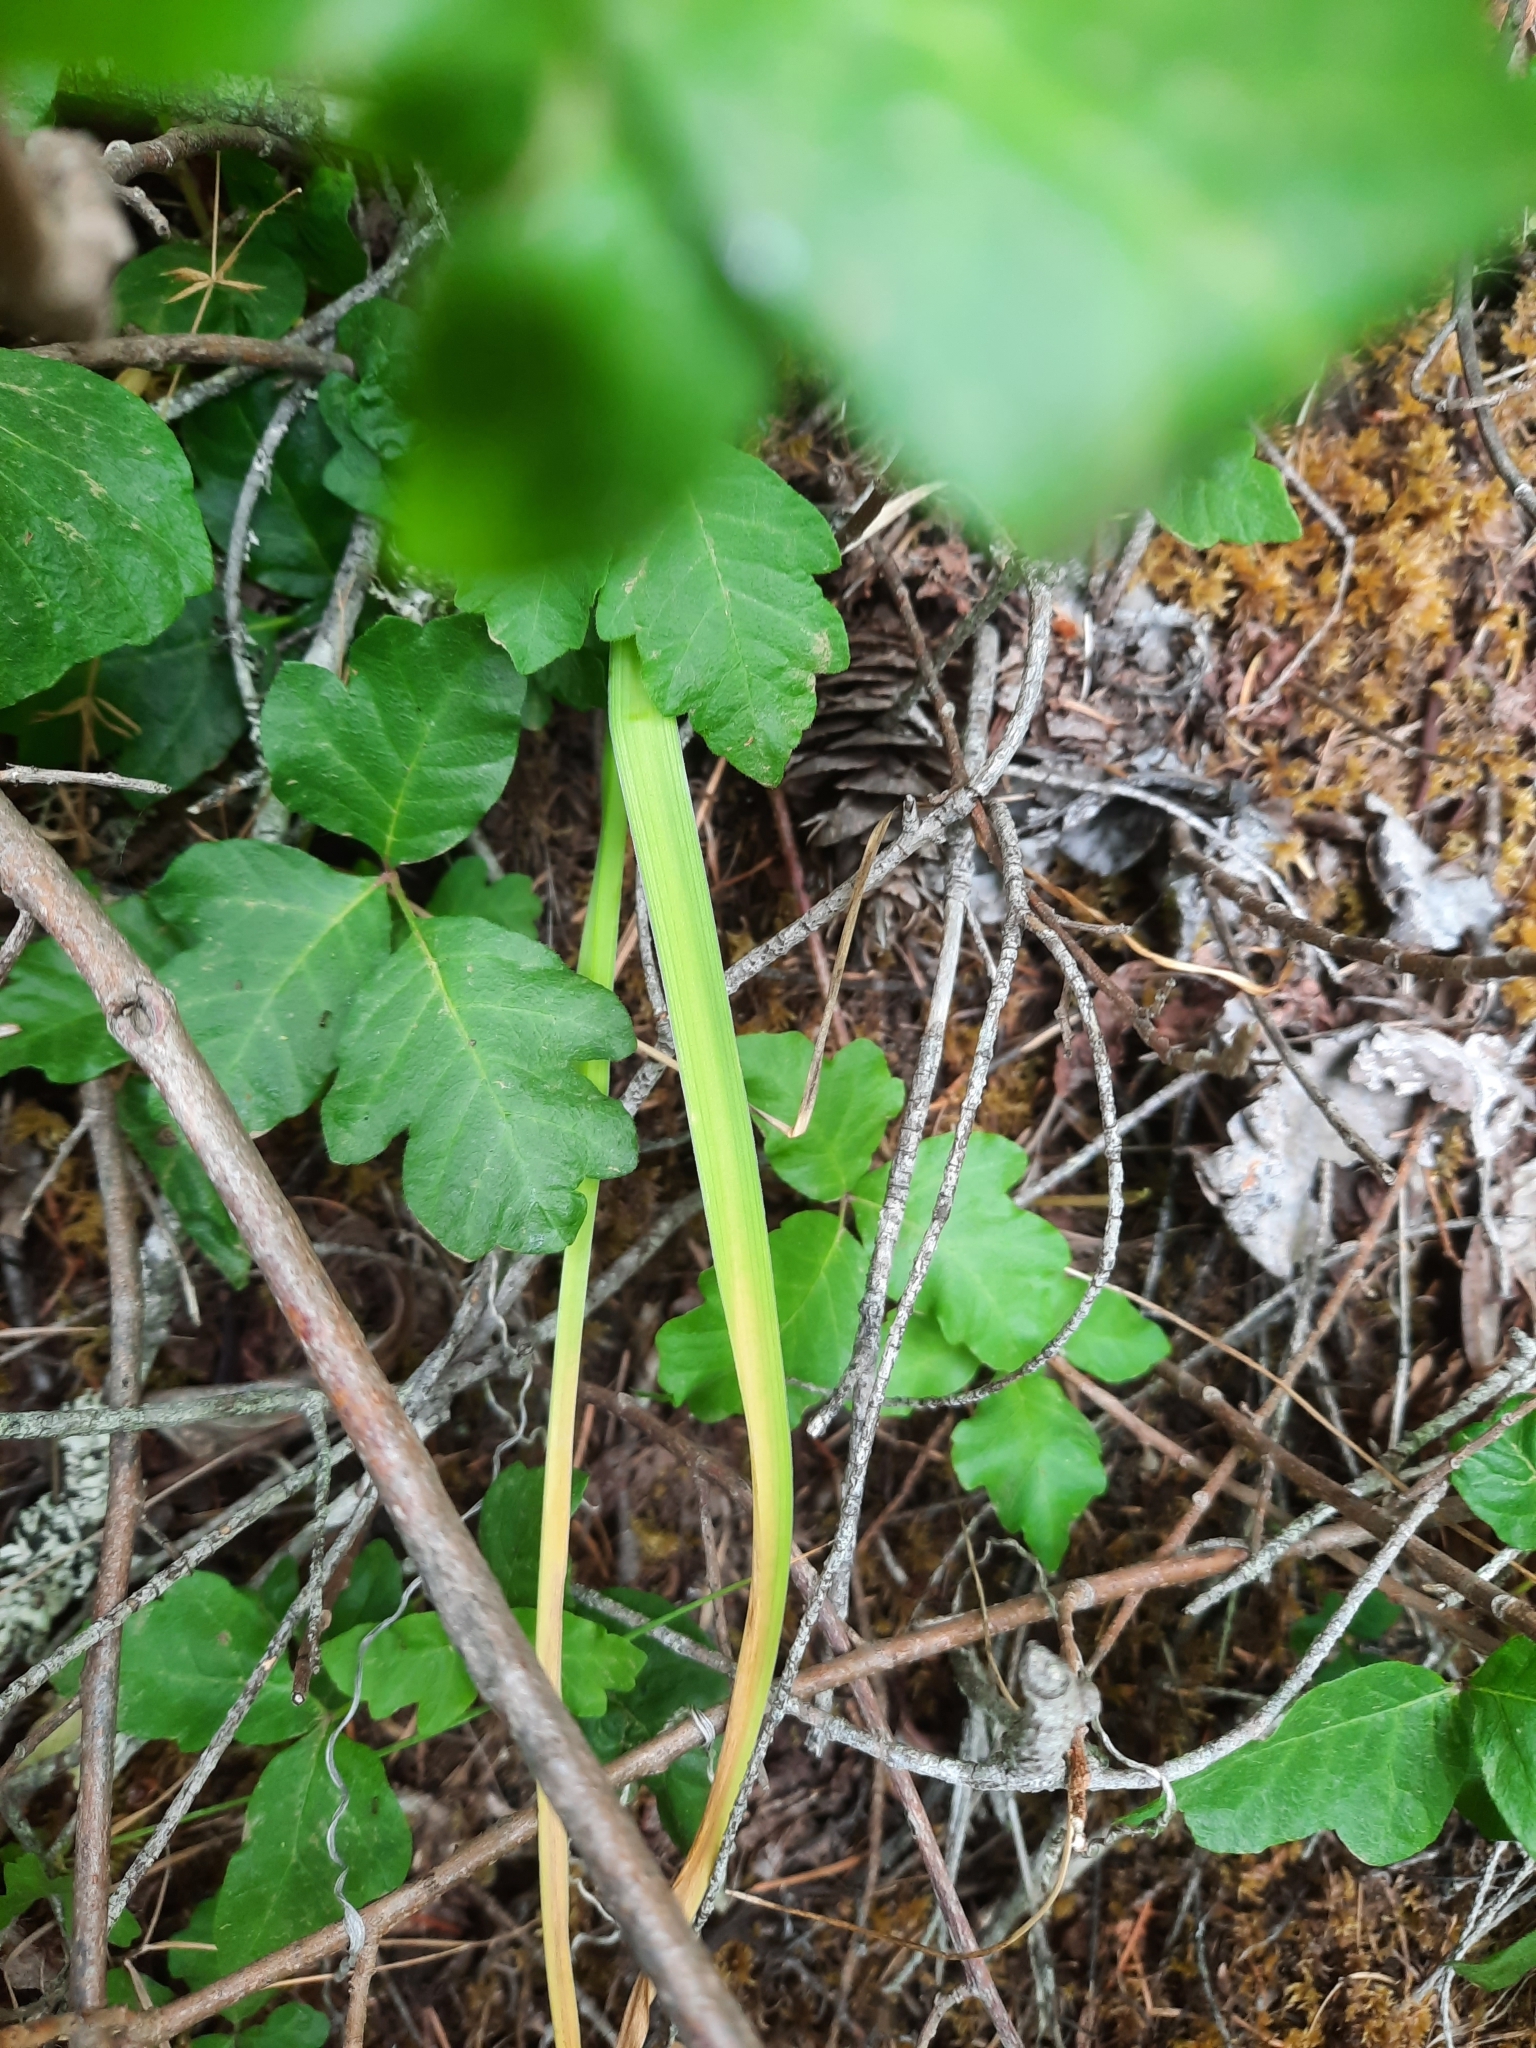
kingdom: Plantae
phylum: Tracheophyta
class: Liliopsida
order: Asparagales
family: Asparagaceae
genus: Dichelostemma
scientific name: Dichelostemma congestum
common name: Fork-tooth ookow
